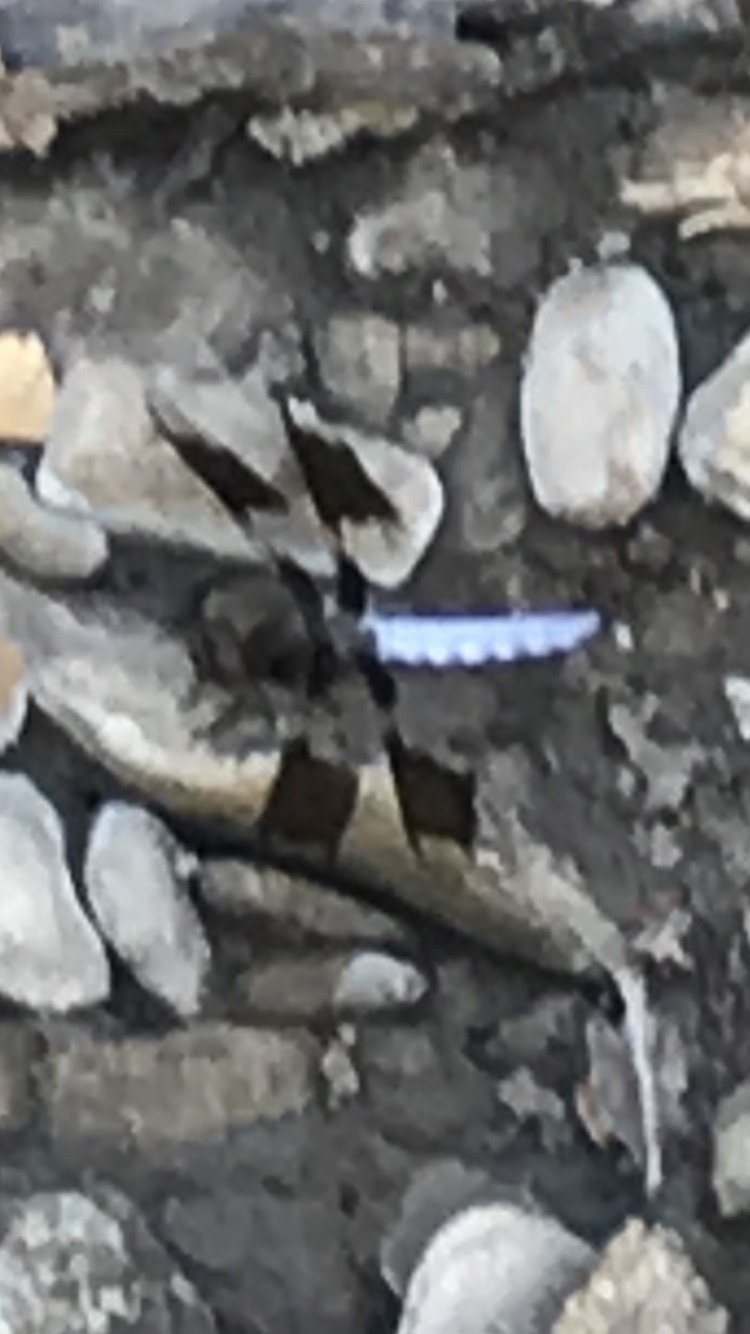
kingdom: Animalia
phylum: Arthropoda
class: Insecta
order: Odonata
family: Libellulidae
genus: Plathemis
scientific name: Plathemis lydia
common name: Common whitetail
